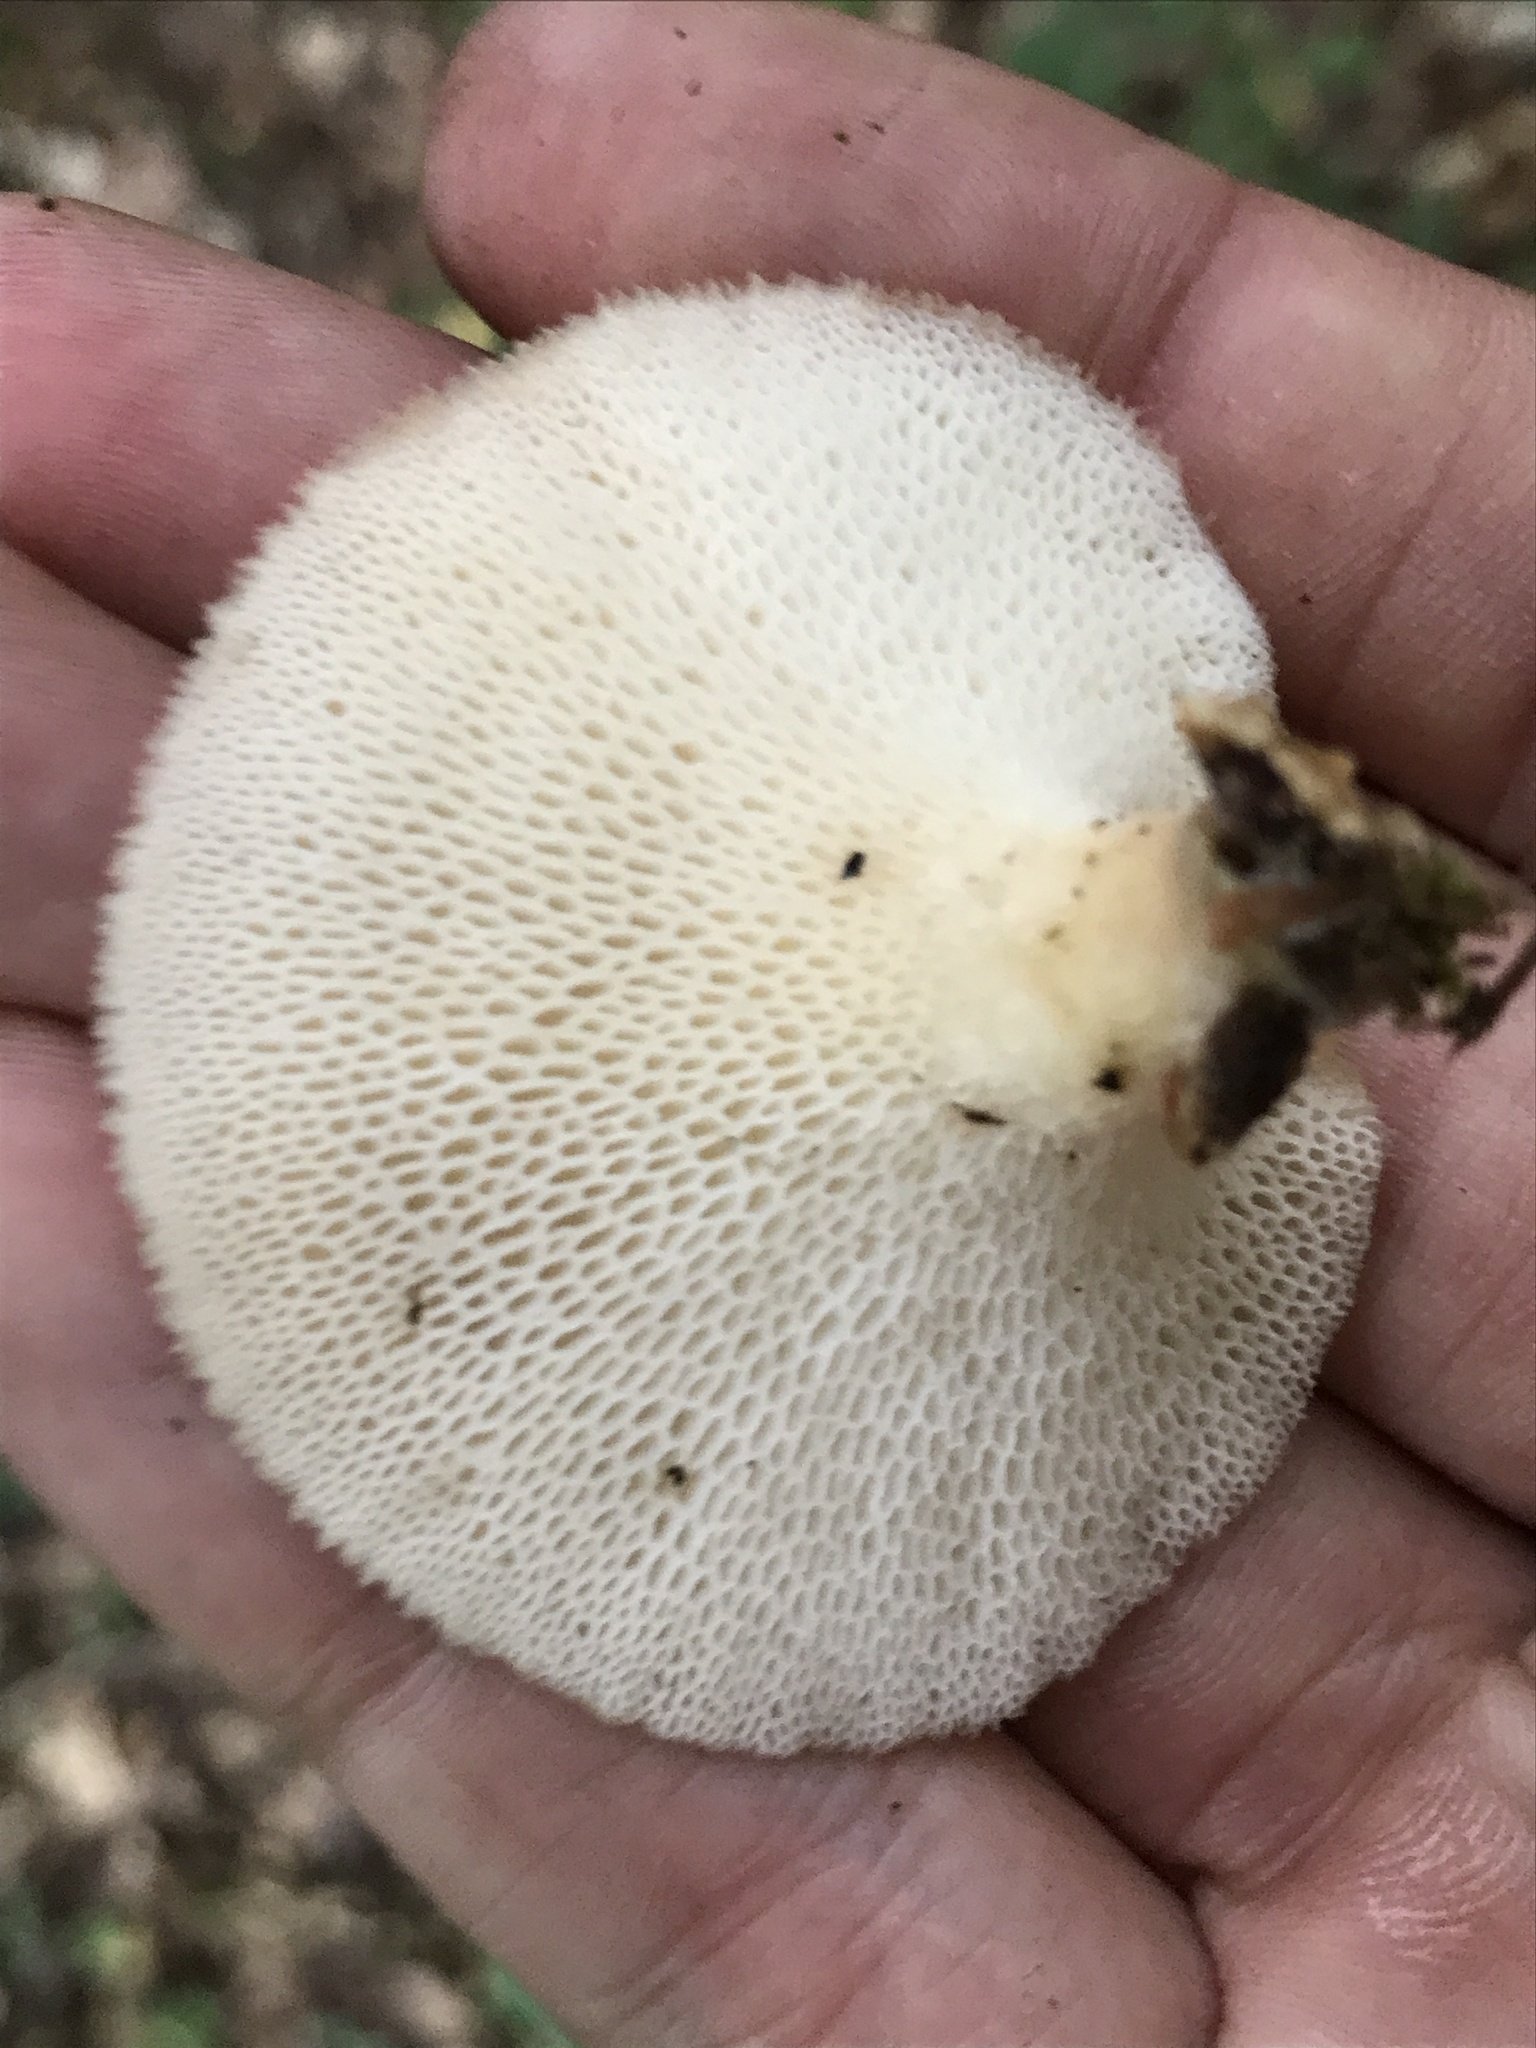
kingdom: Fungi
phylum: Basidiomycota
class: Agaricomycetes
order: Polyporales
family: Polyporaceae
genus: Polyporus
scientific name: Polyporus tuberaster
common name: Tuberous polypore
